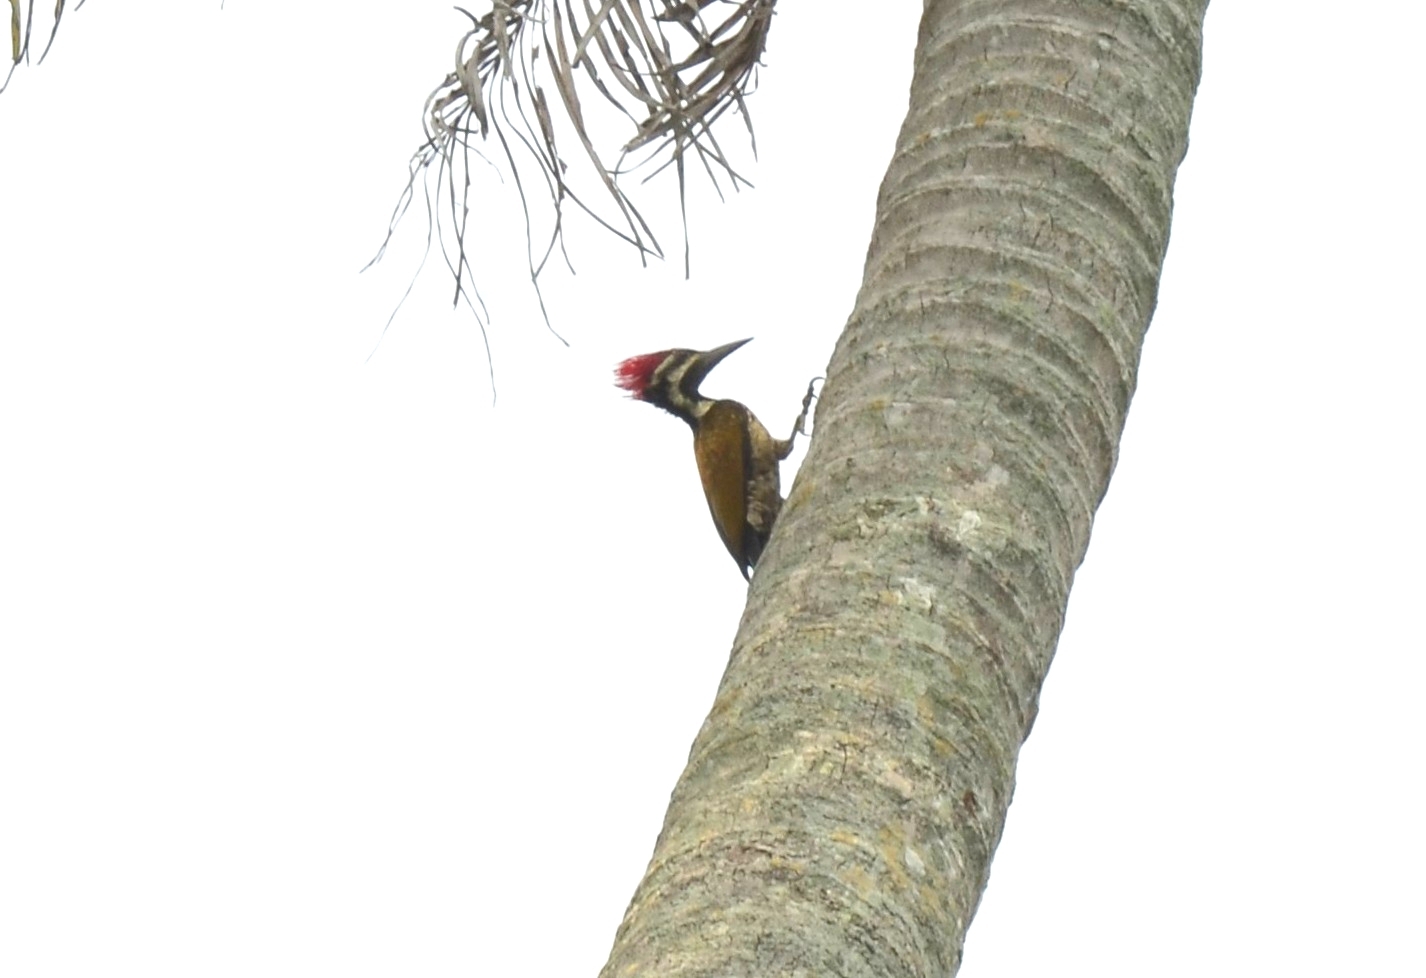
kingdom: Animalia
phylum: Chordata
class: Aves
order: Piciformes
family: Picidae
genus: Dinopium
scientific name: Dinopium benghalense
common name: Black-rumped flameback
